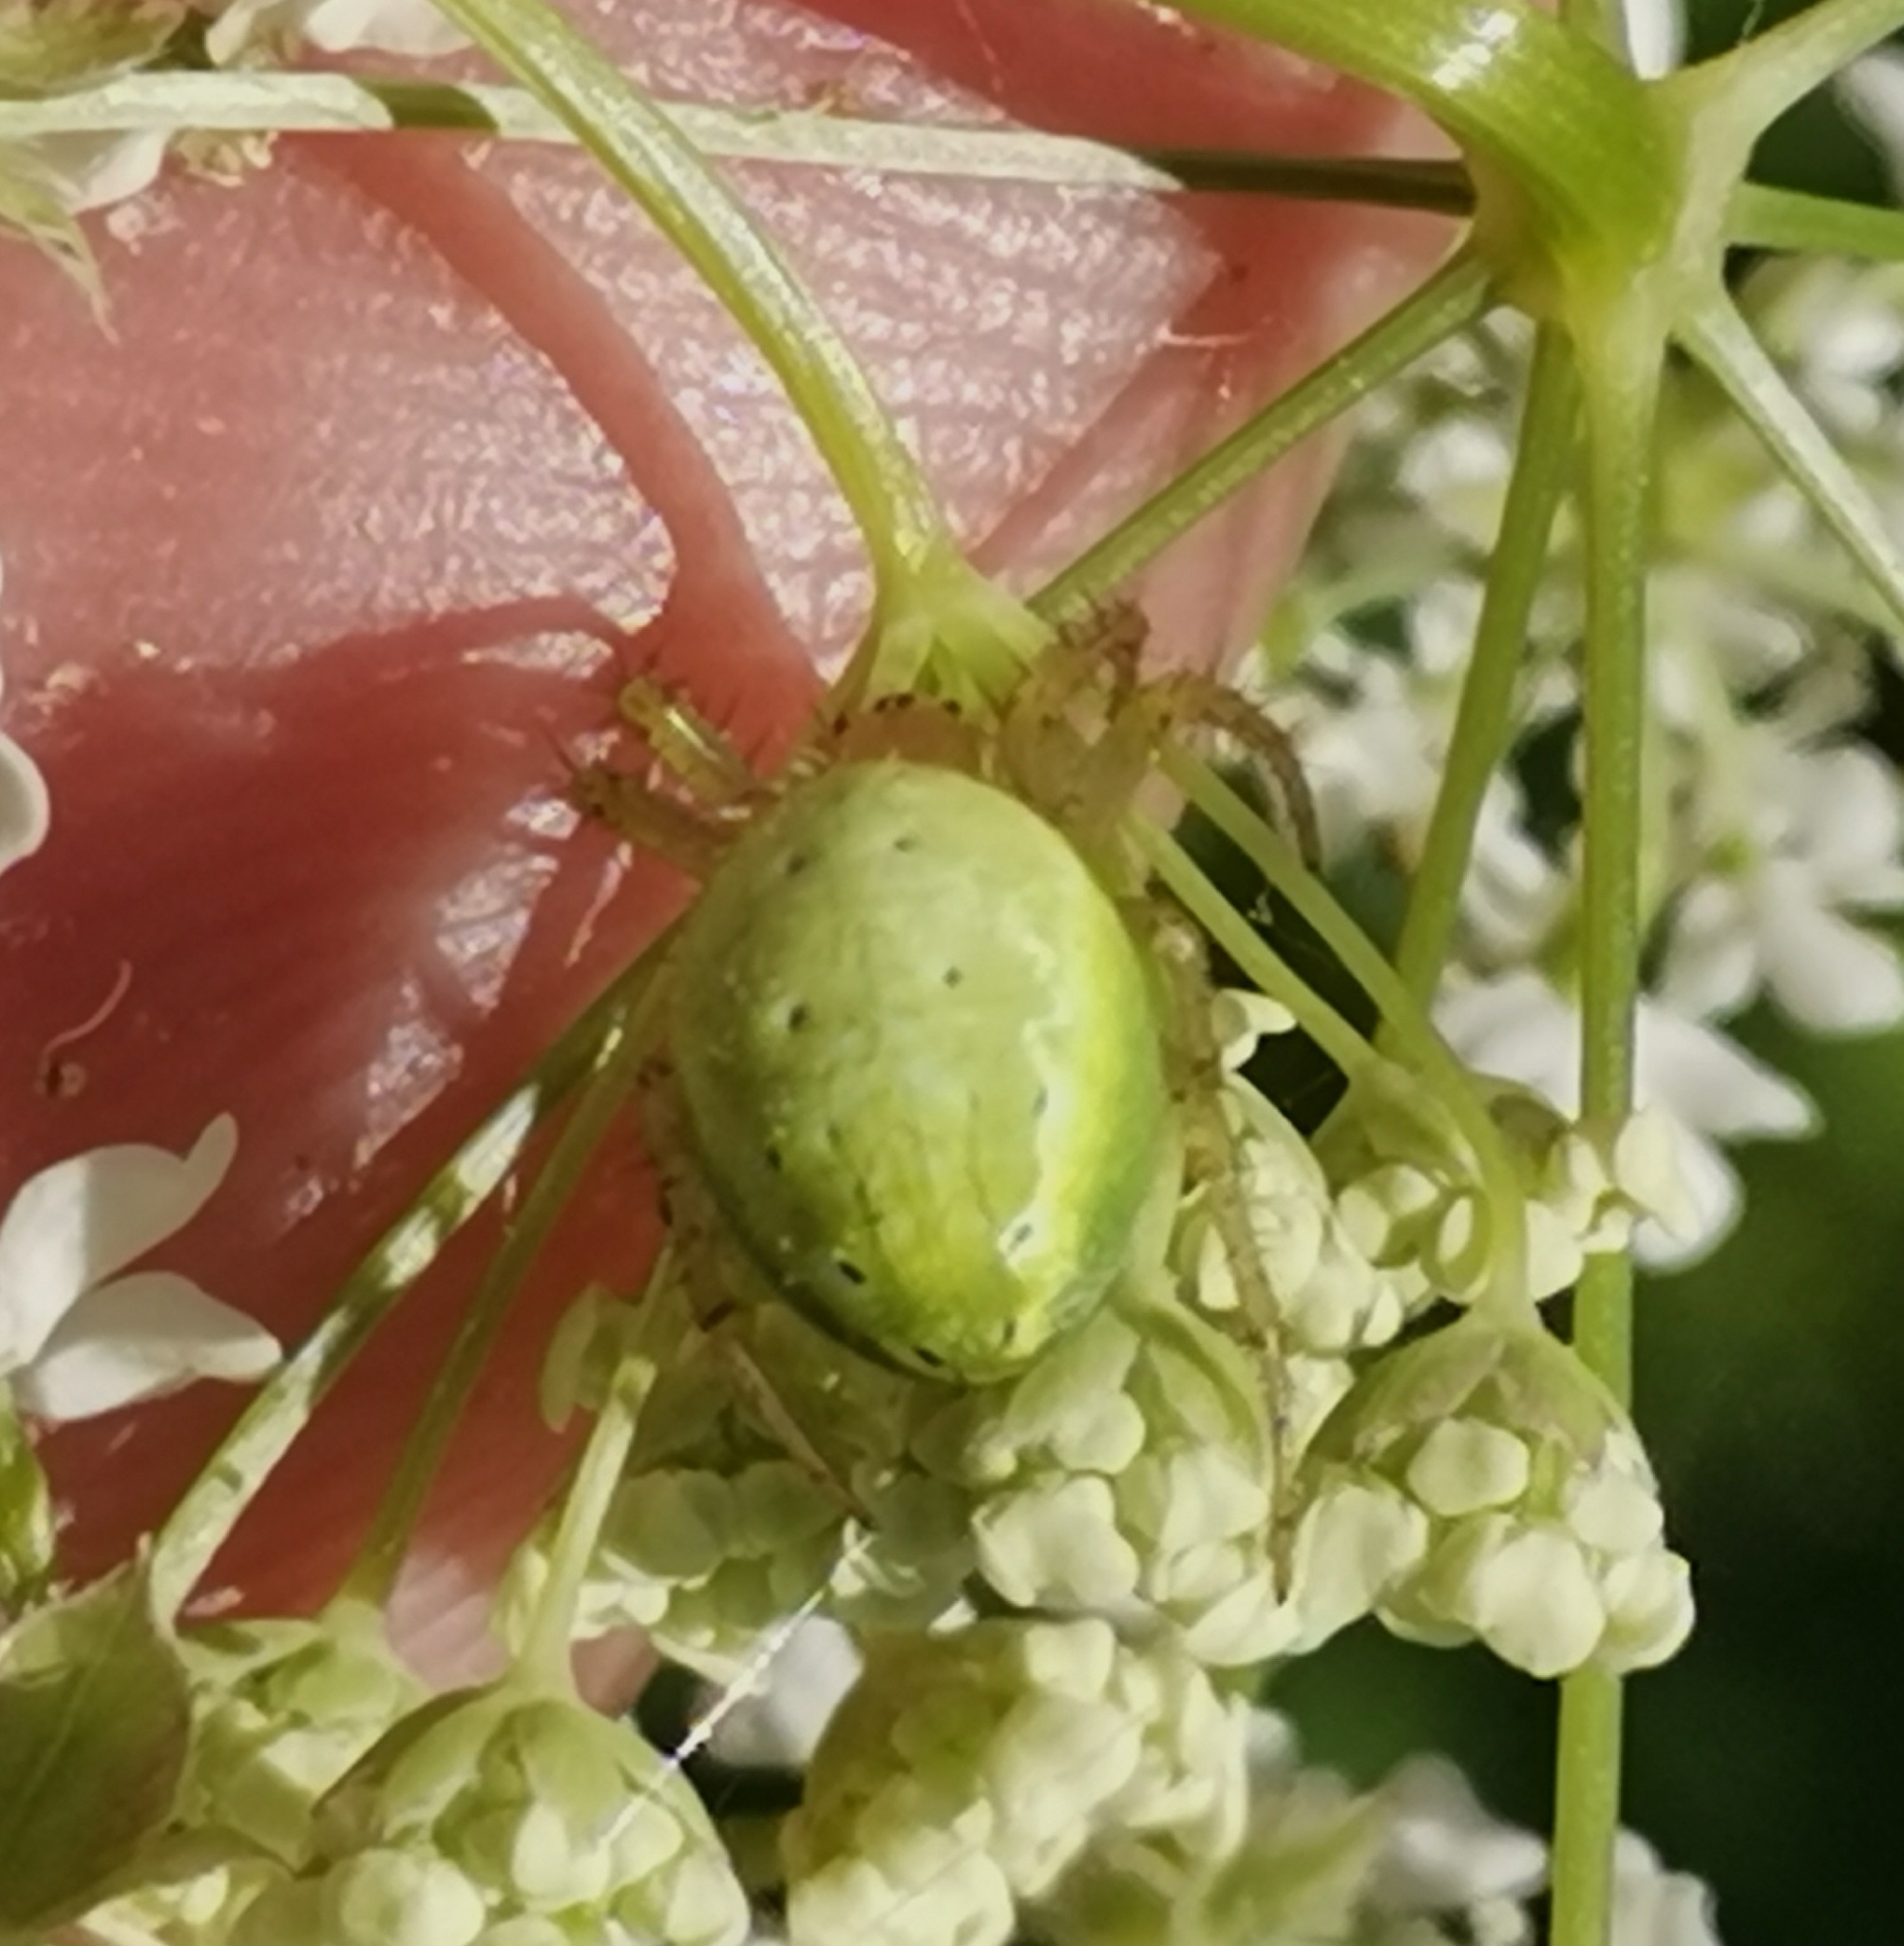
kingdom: Animalia
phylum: Arthropoda
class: Arachnida
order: Araneae
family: Araneidae
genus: Araniella
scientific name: Araniella
